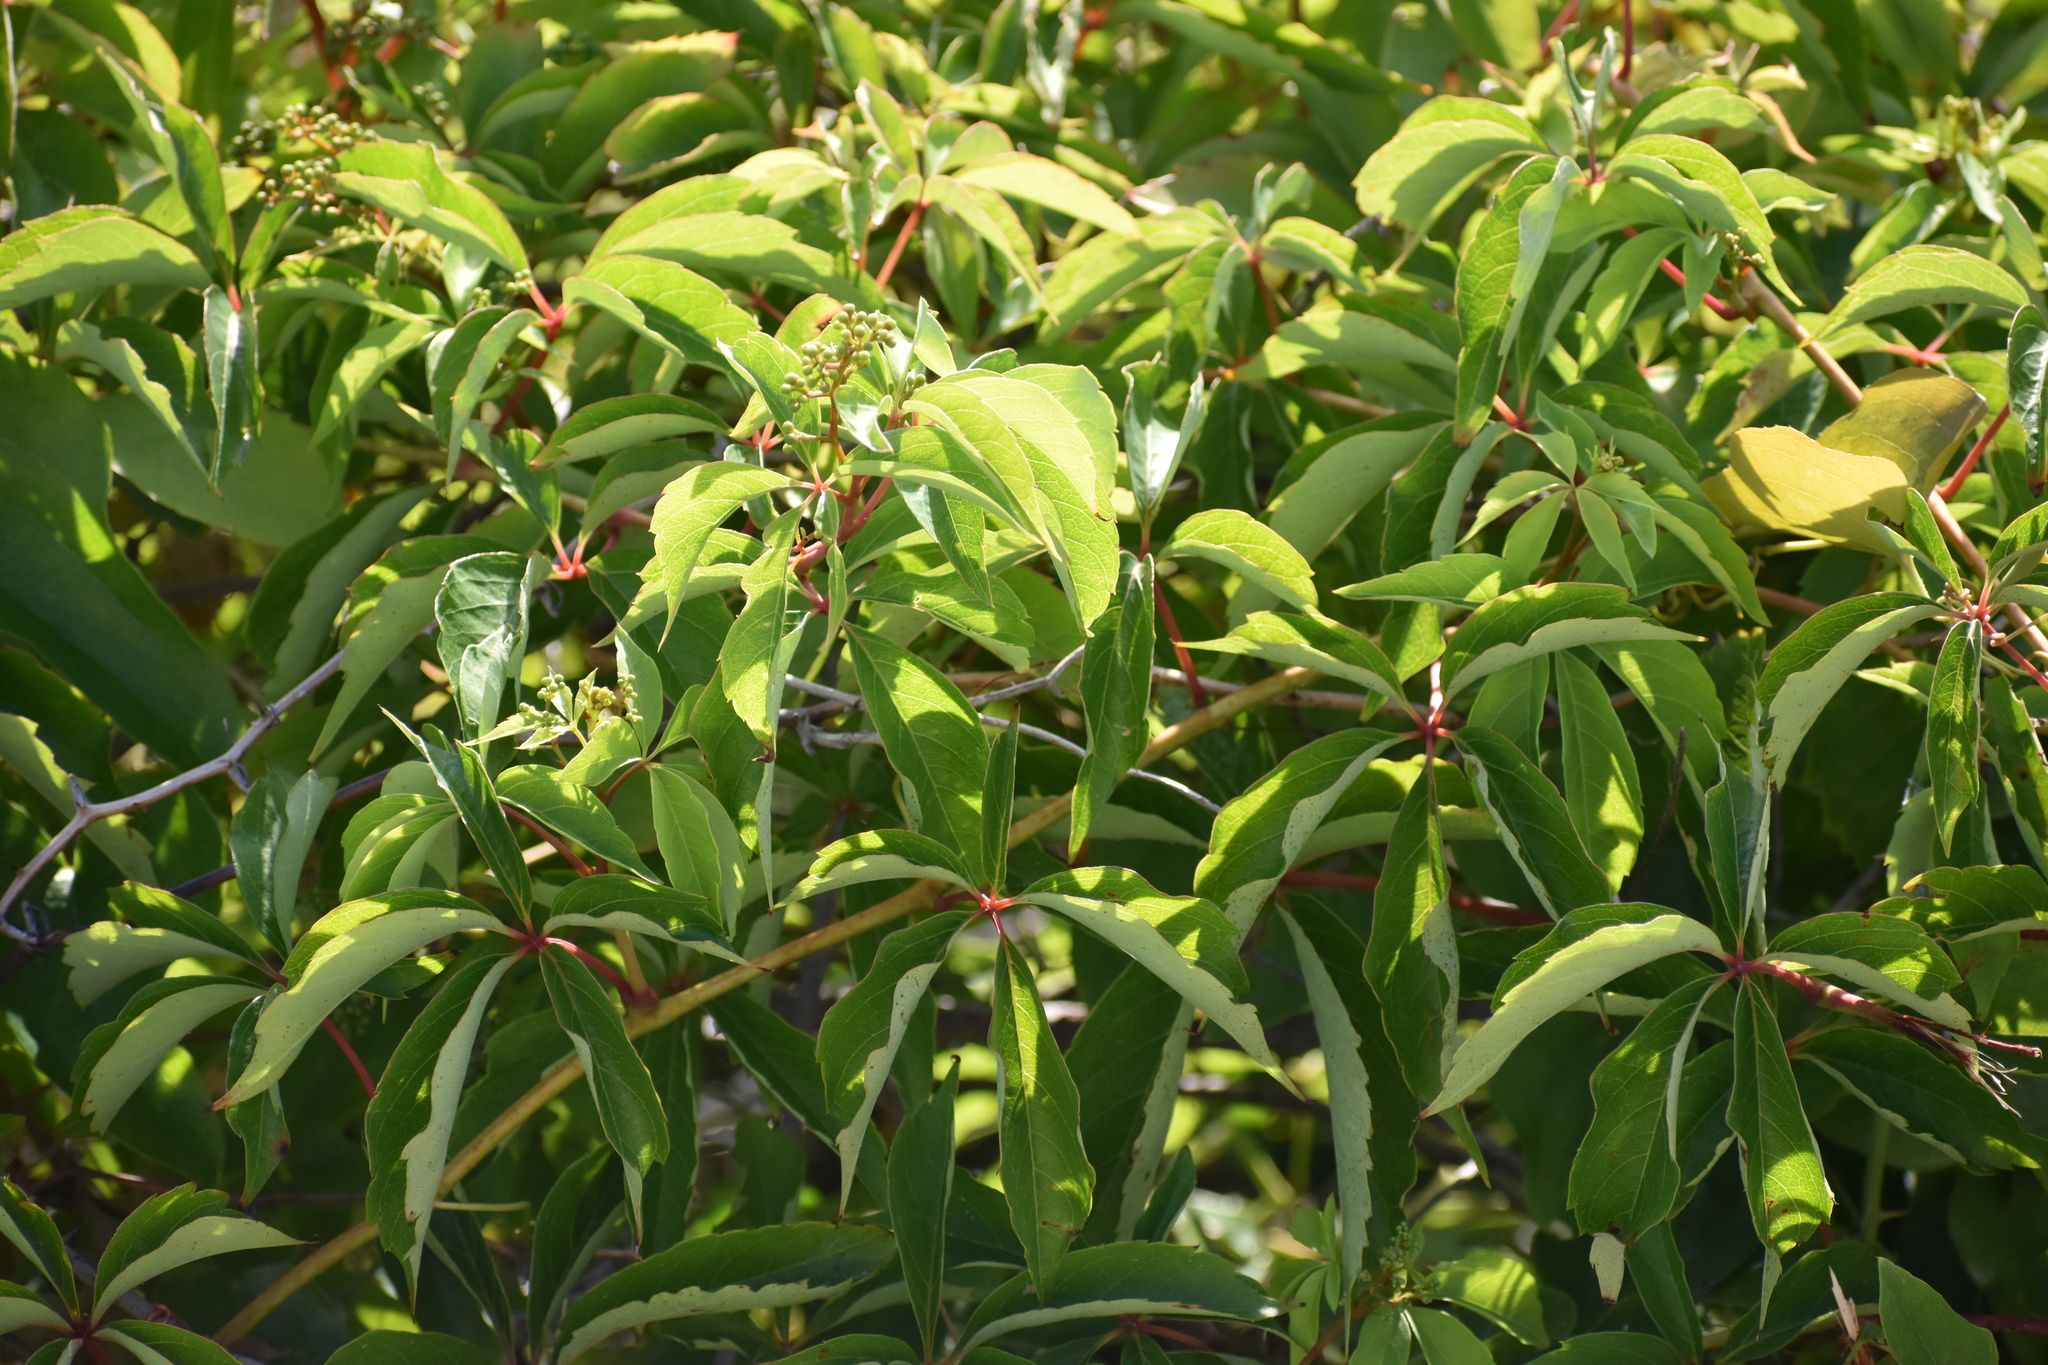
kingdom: Plantae
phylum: Tracheophyta
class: Magnoliopsida
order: Vitales
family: Vitaceae
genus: Parthenocissus
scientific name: Parthenocissus quinquefolia
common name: Virginia-creeper
